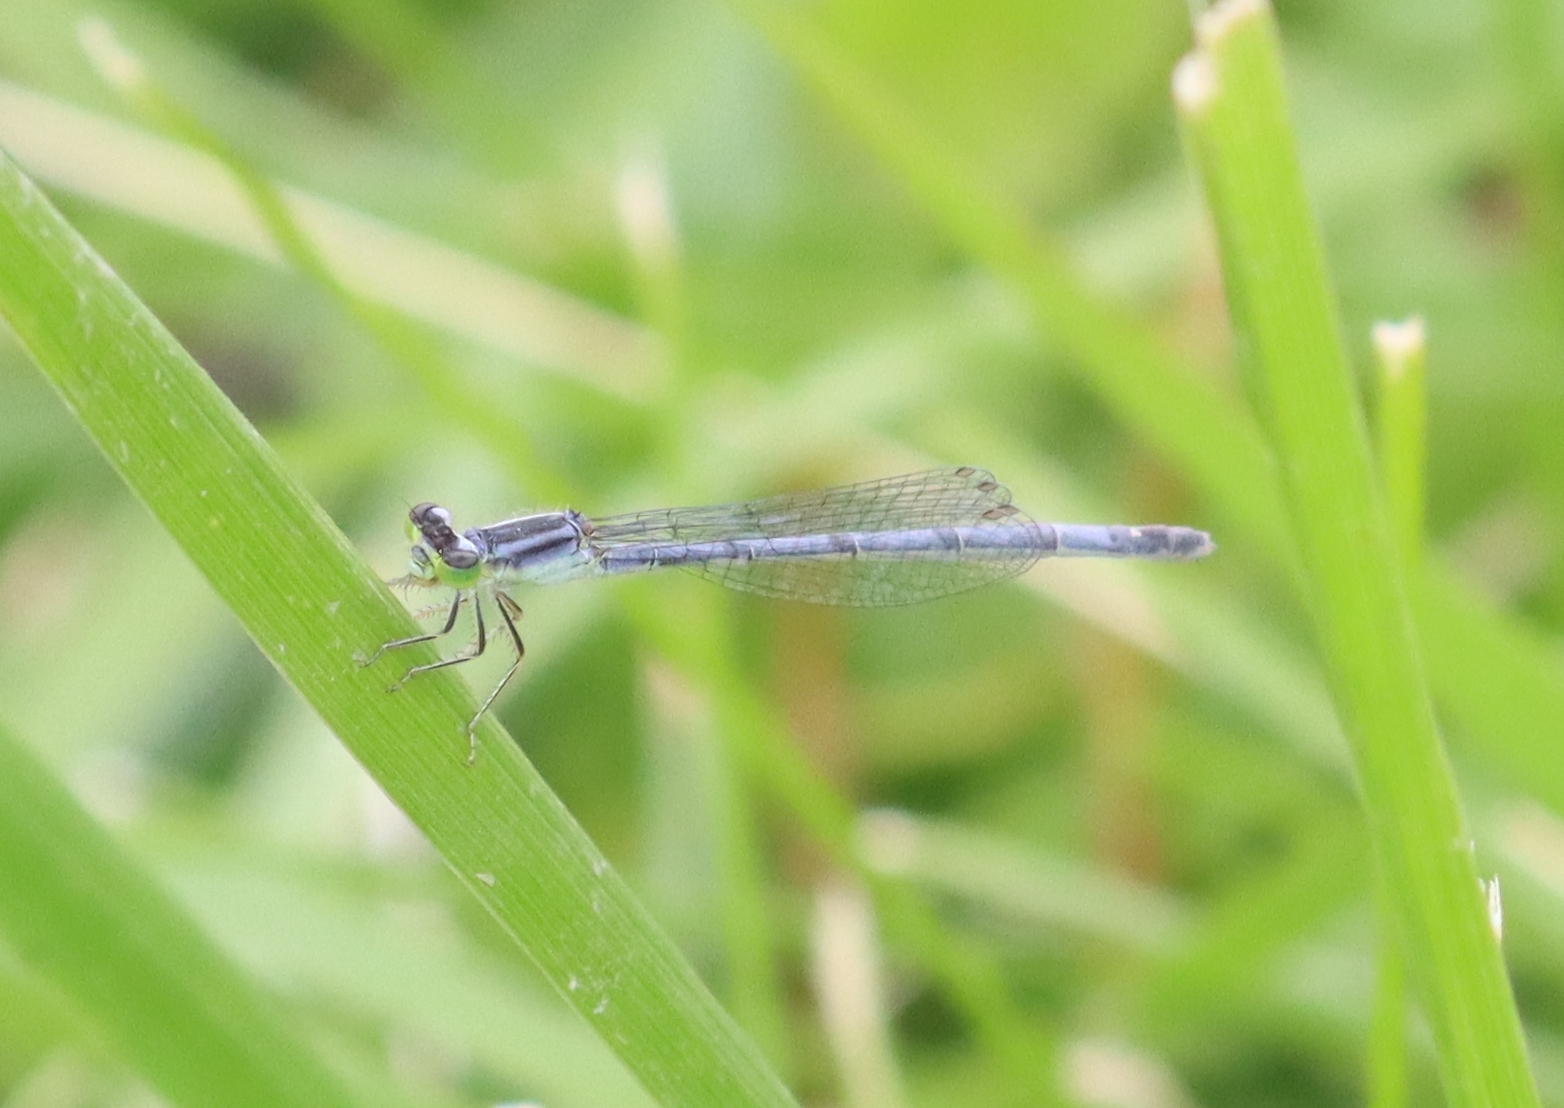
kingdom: Animalia
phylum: Arthropoda
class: Insecta
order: Odonata
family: Coenagrionidae
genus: Ischnura
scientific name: Ischnura verticalis
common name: Eastern forktail
